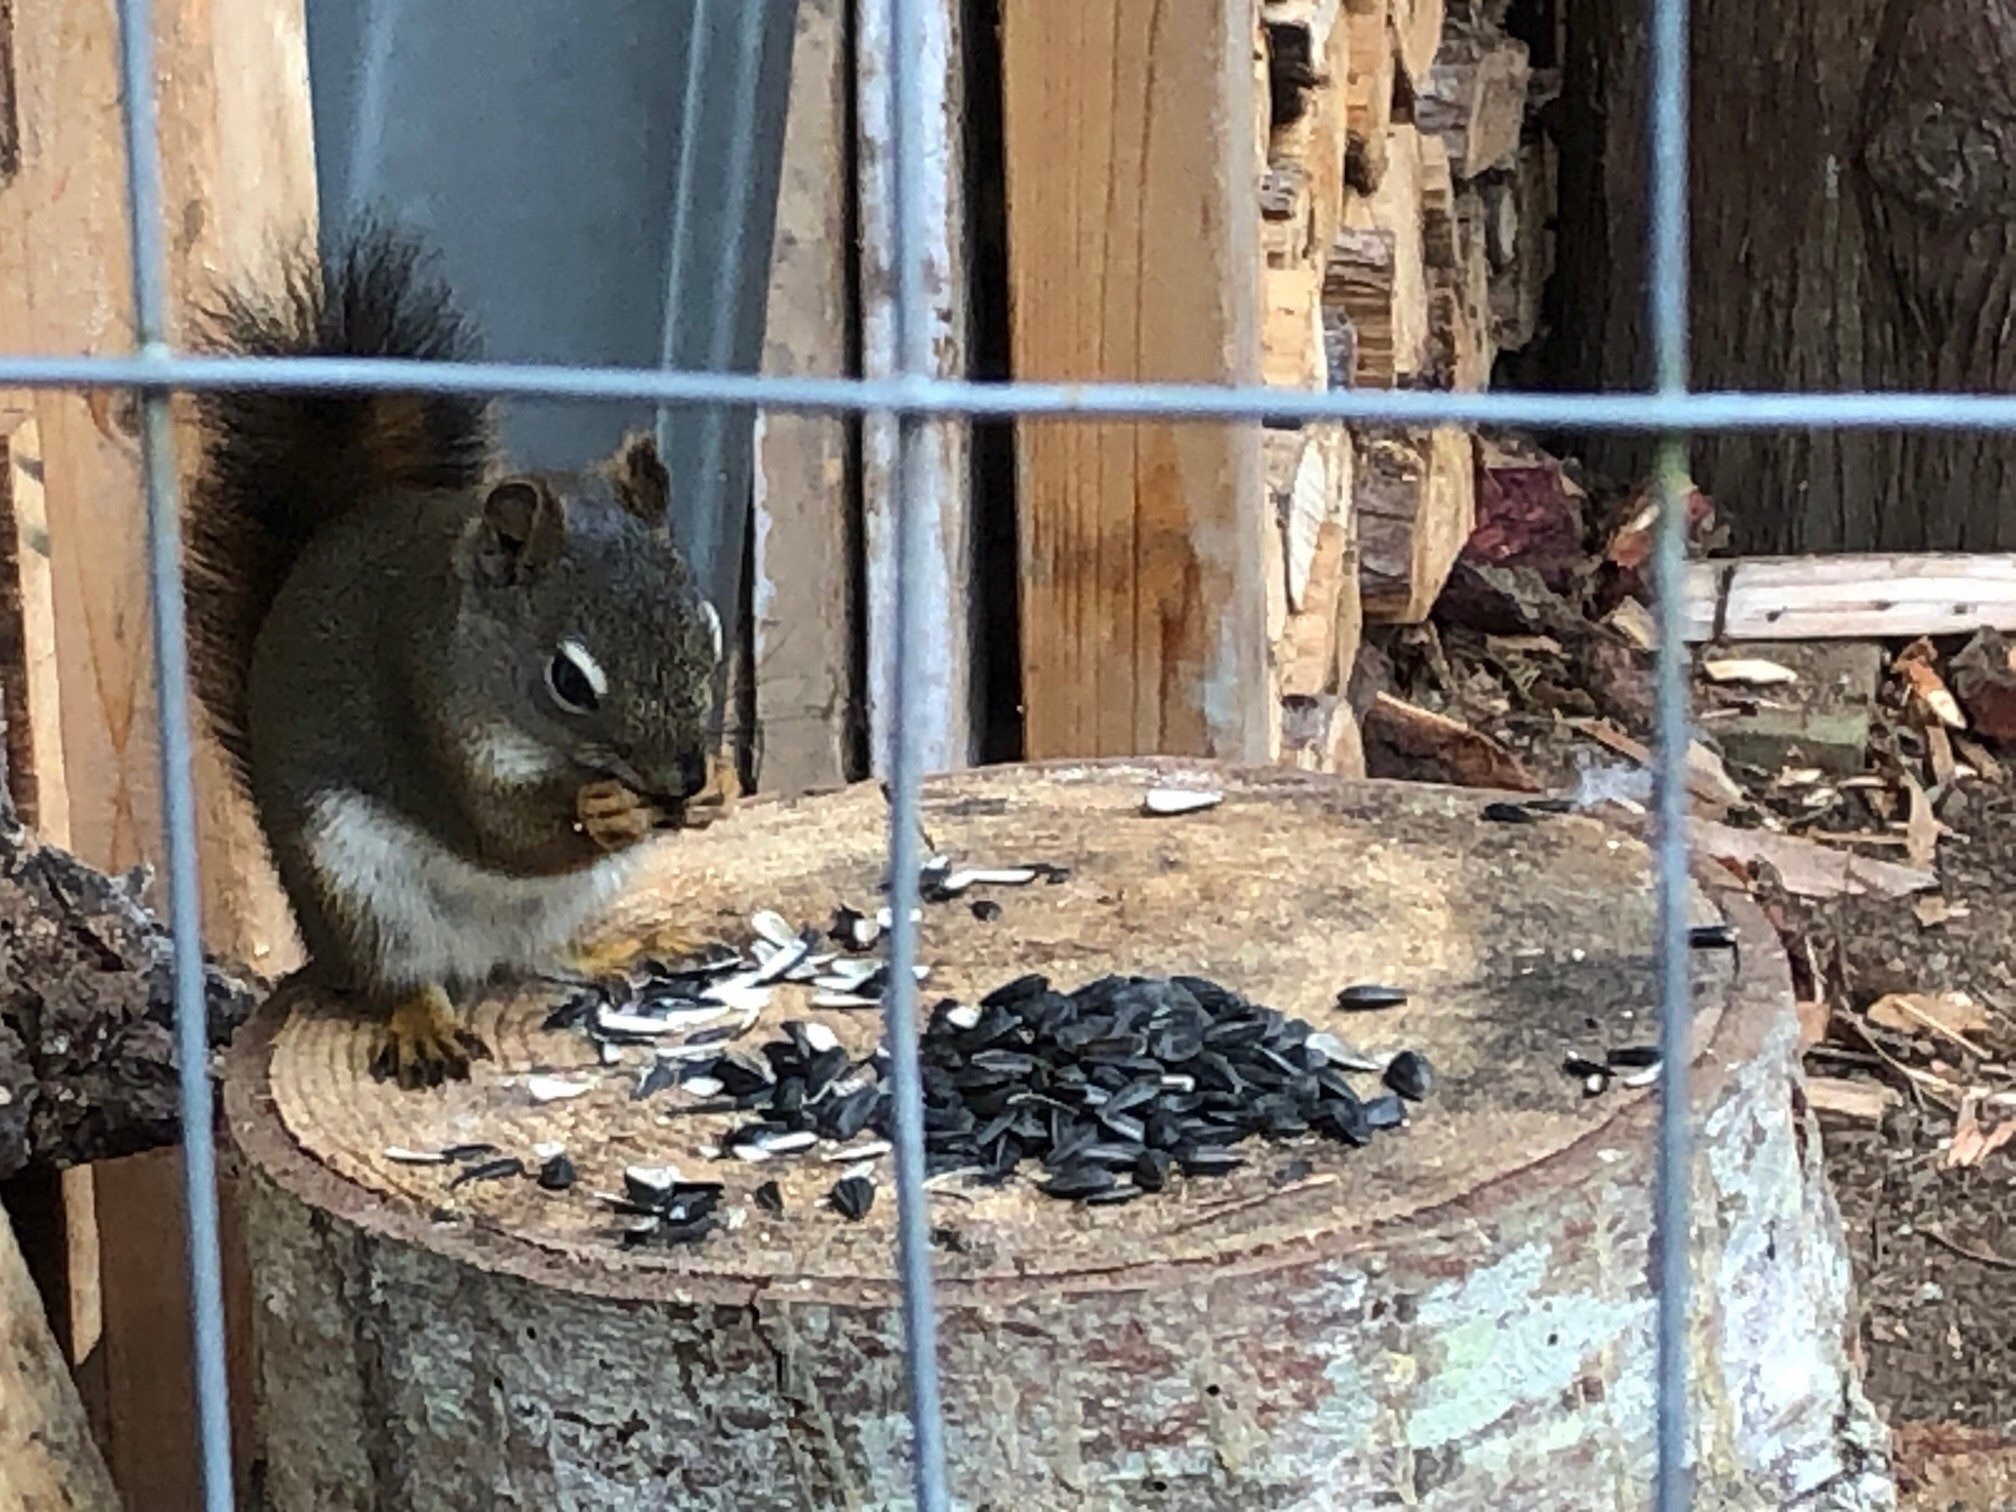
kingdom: Animalia
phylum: Chordata
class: Mammalia
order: Rodentia
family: Sciuridae
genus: Tamiasciurus
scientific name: Tamiasciurus hudsonicus
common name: Red squirrel
